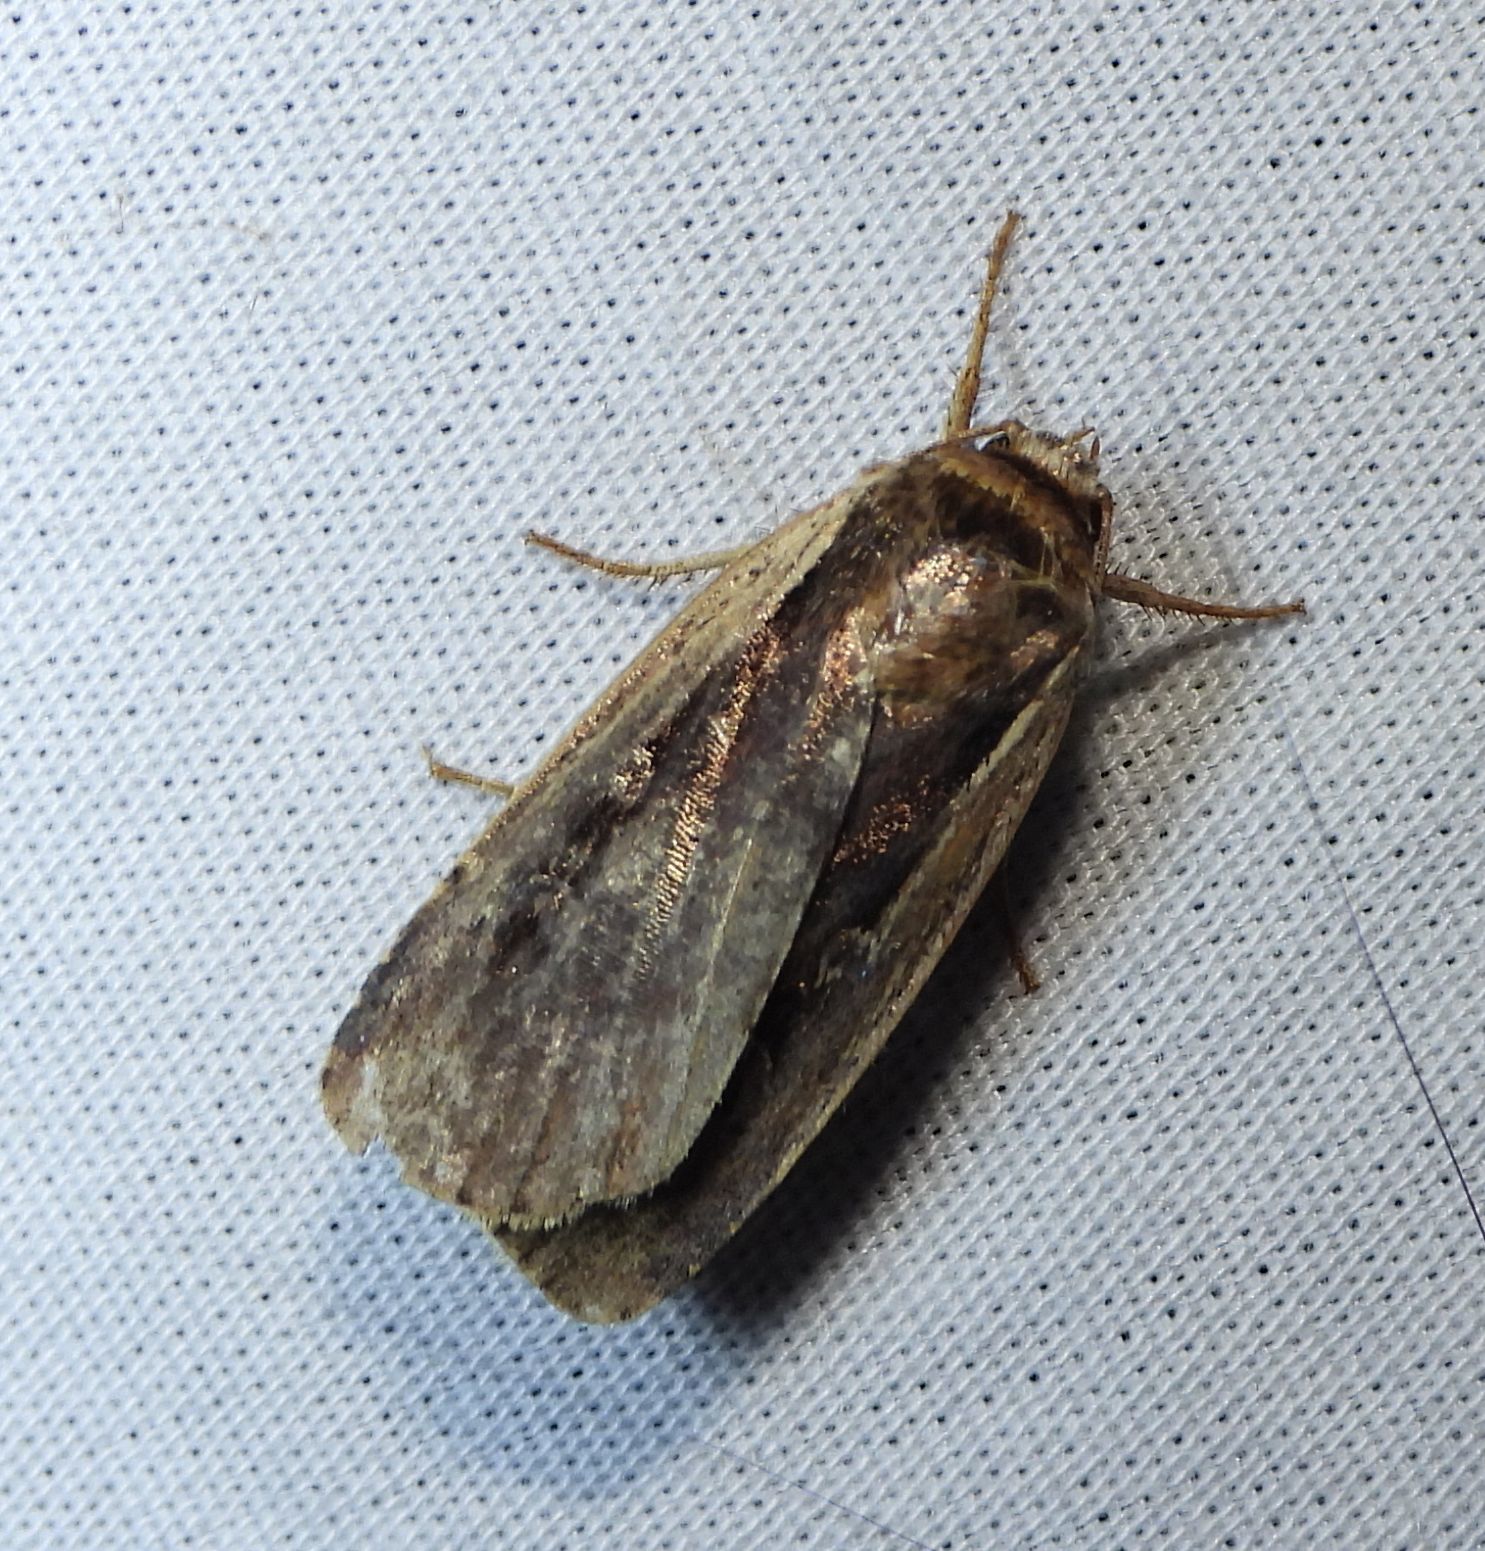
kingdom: Animalia
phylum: Arthropoda
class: Insecta
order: Lepidoptera
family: Noctuidae
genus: Ochropleura
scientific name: Ochropleura implecta
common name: Flame-shouldered dart
